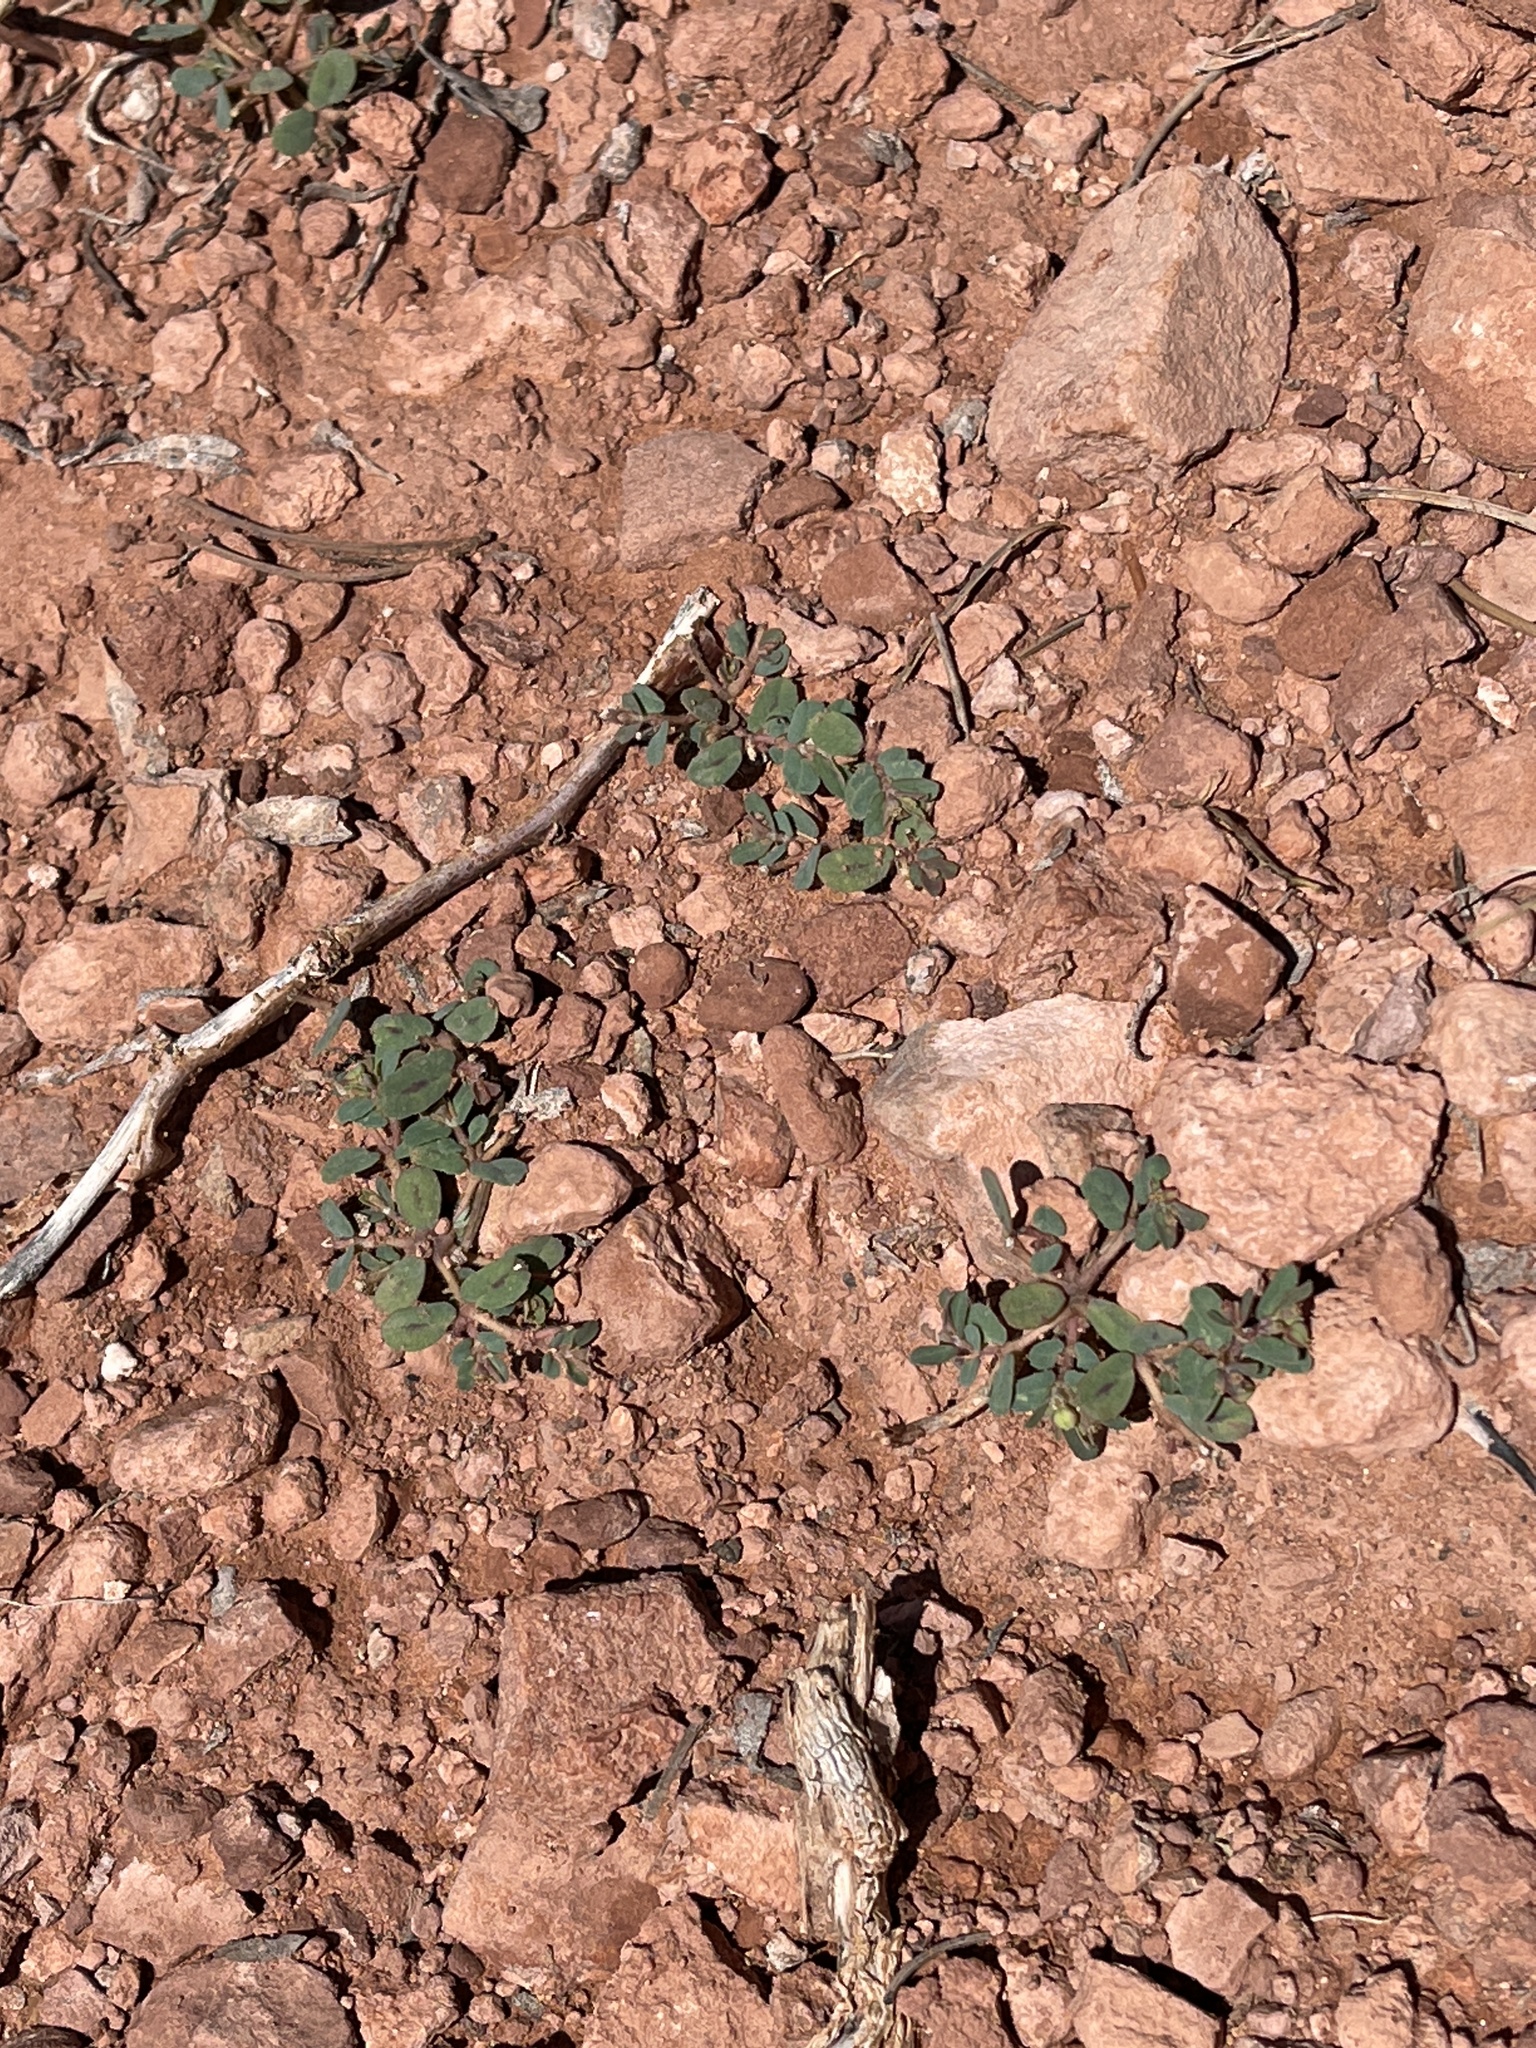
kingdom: Plantae
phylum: Tracheophyta
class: Magnoliopsida
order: Malpighiales
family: Euphorbiaceae
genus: Euphorbia
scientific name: Euphorbia serrula
